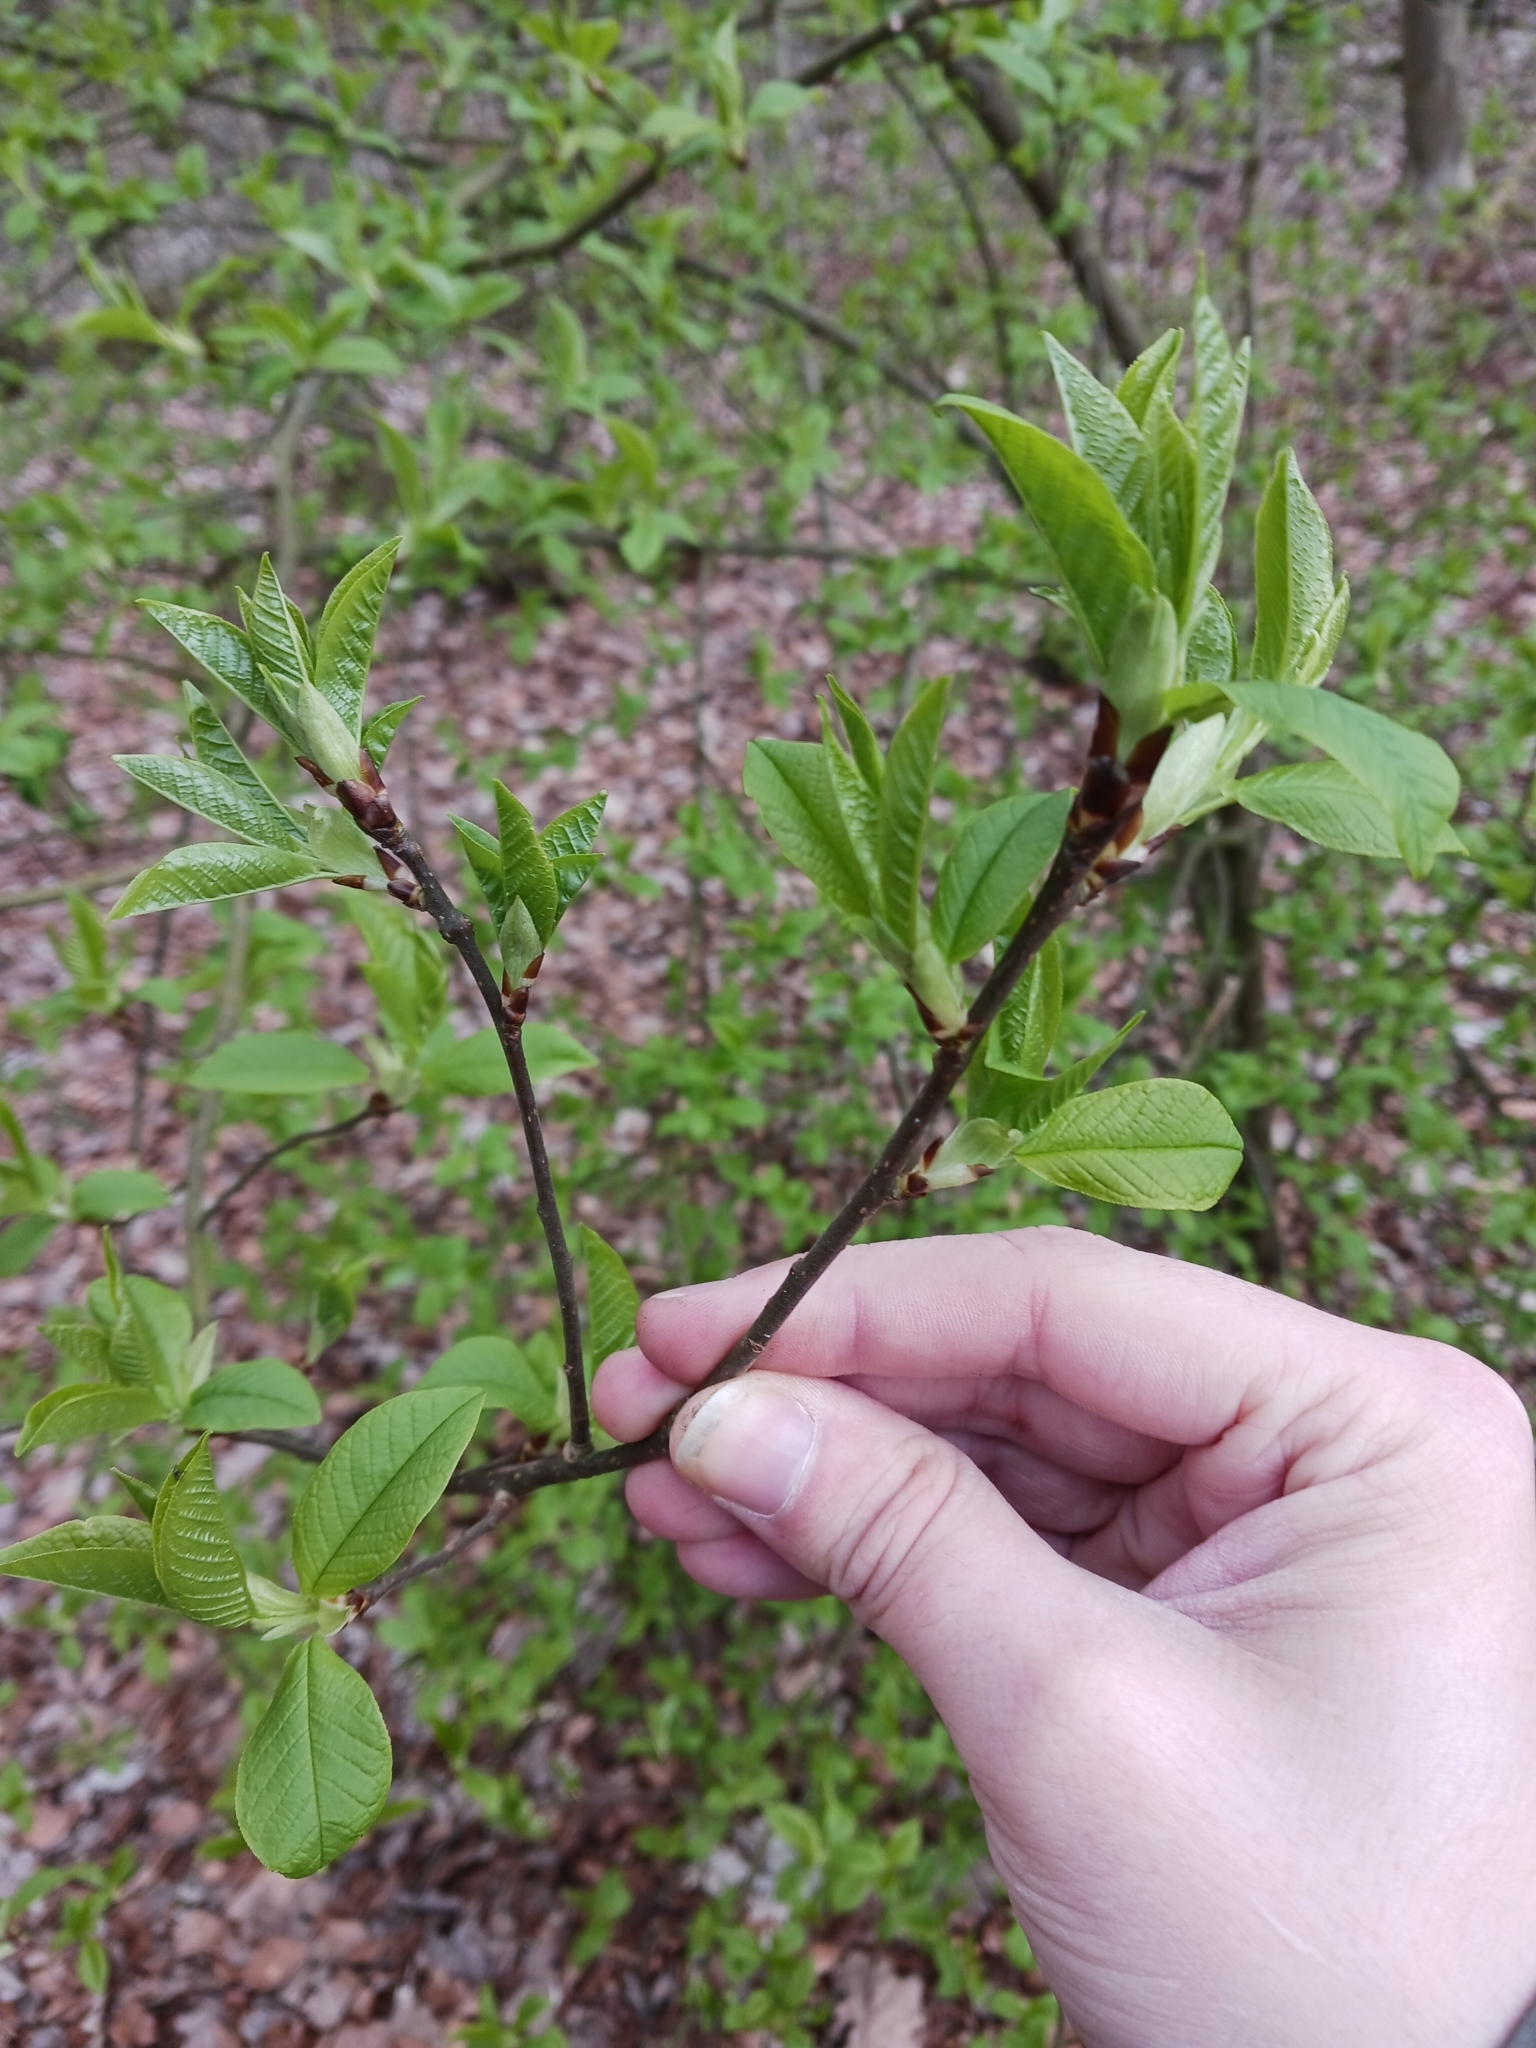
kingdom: Plantae
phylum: Tracheophyta
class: Magnoliopsida
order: Rosales
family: Rosaceae
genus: Prunus
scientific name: Prunus padus
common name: Bird cherry
